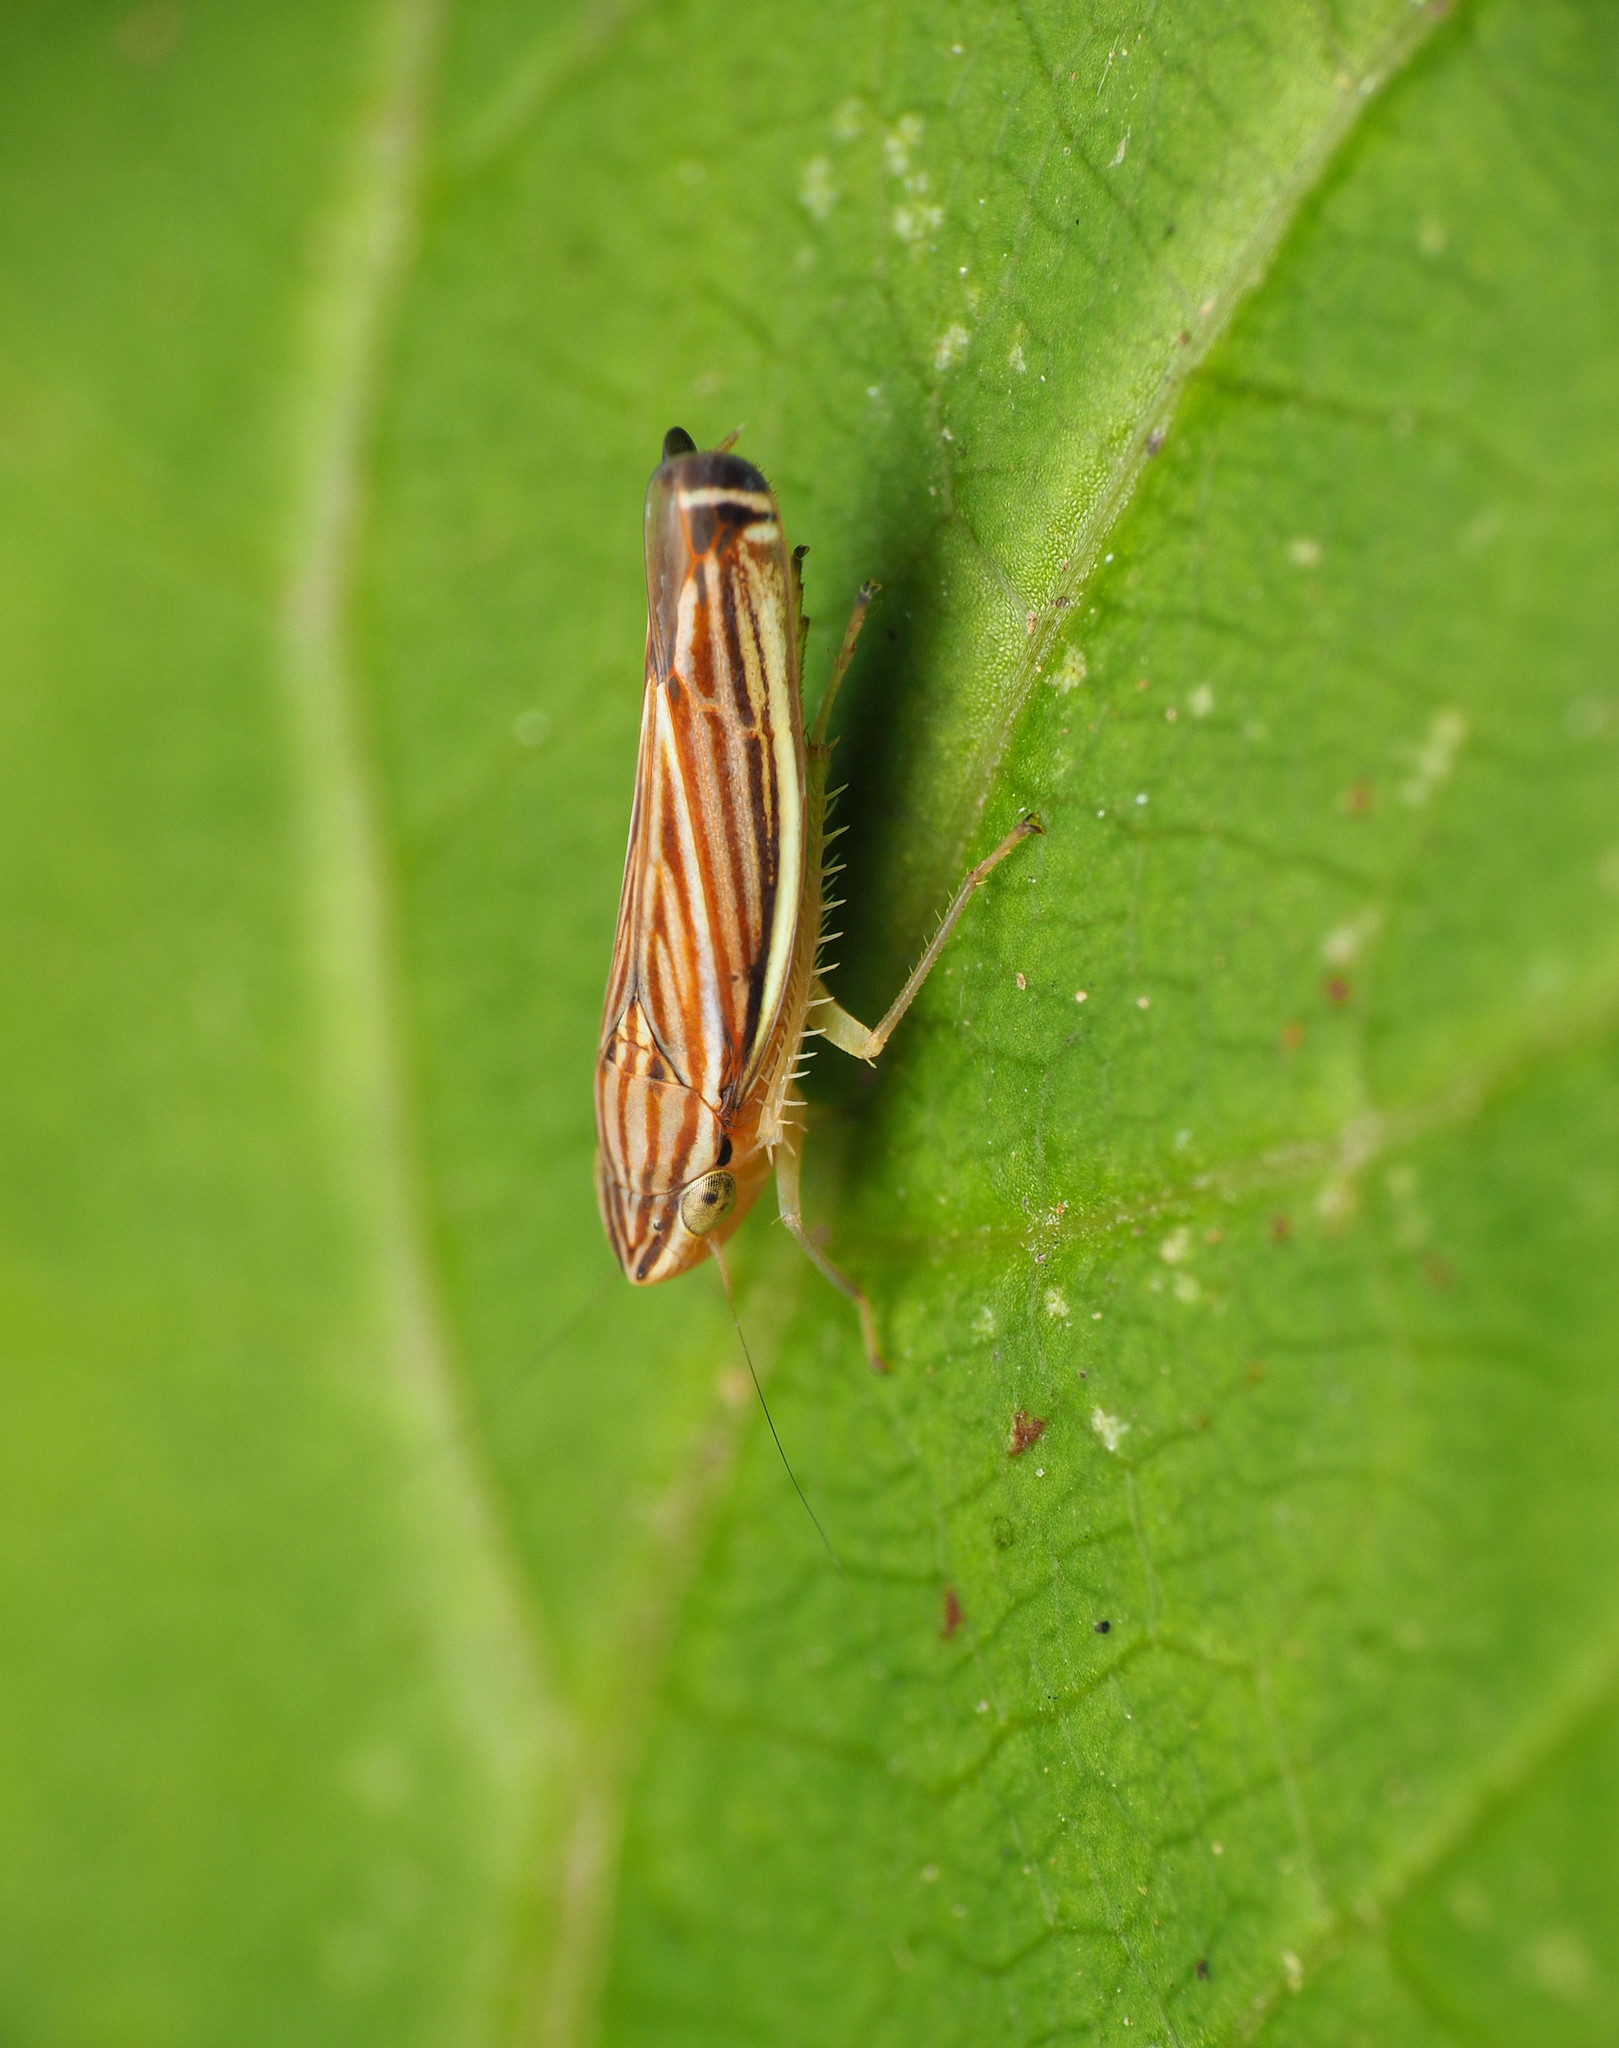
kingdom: Animalia
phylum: Arthropoda
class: Insecta
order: Hemiptera
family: Cicadellidae
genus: Sibovia
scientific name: Sibovia occatoria
